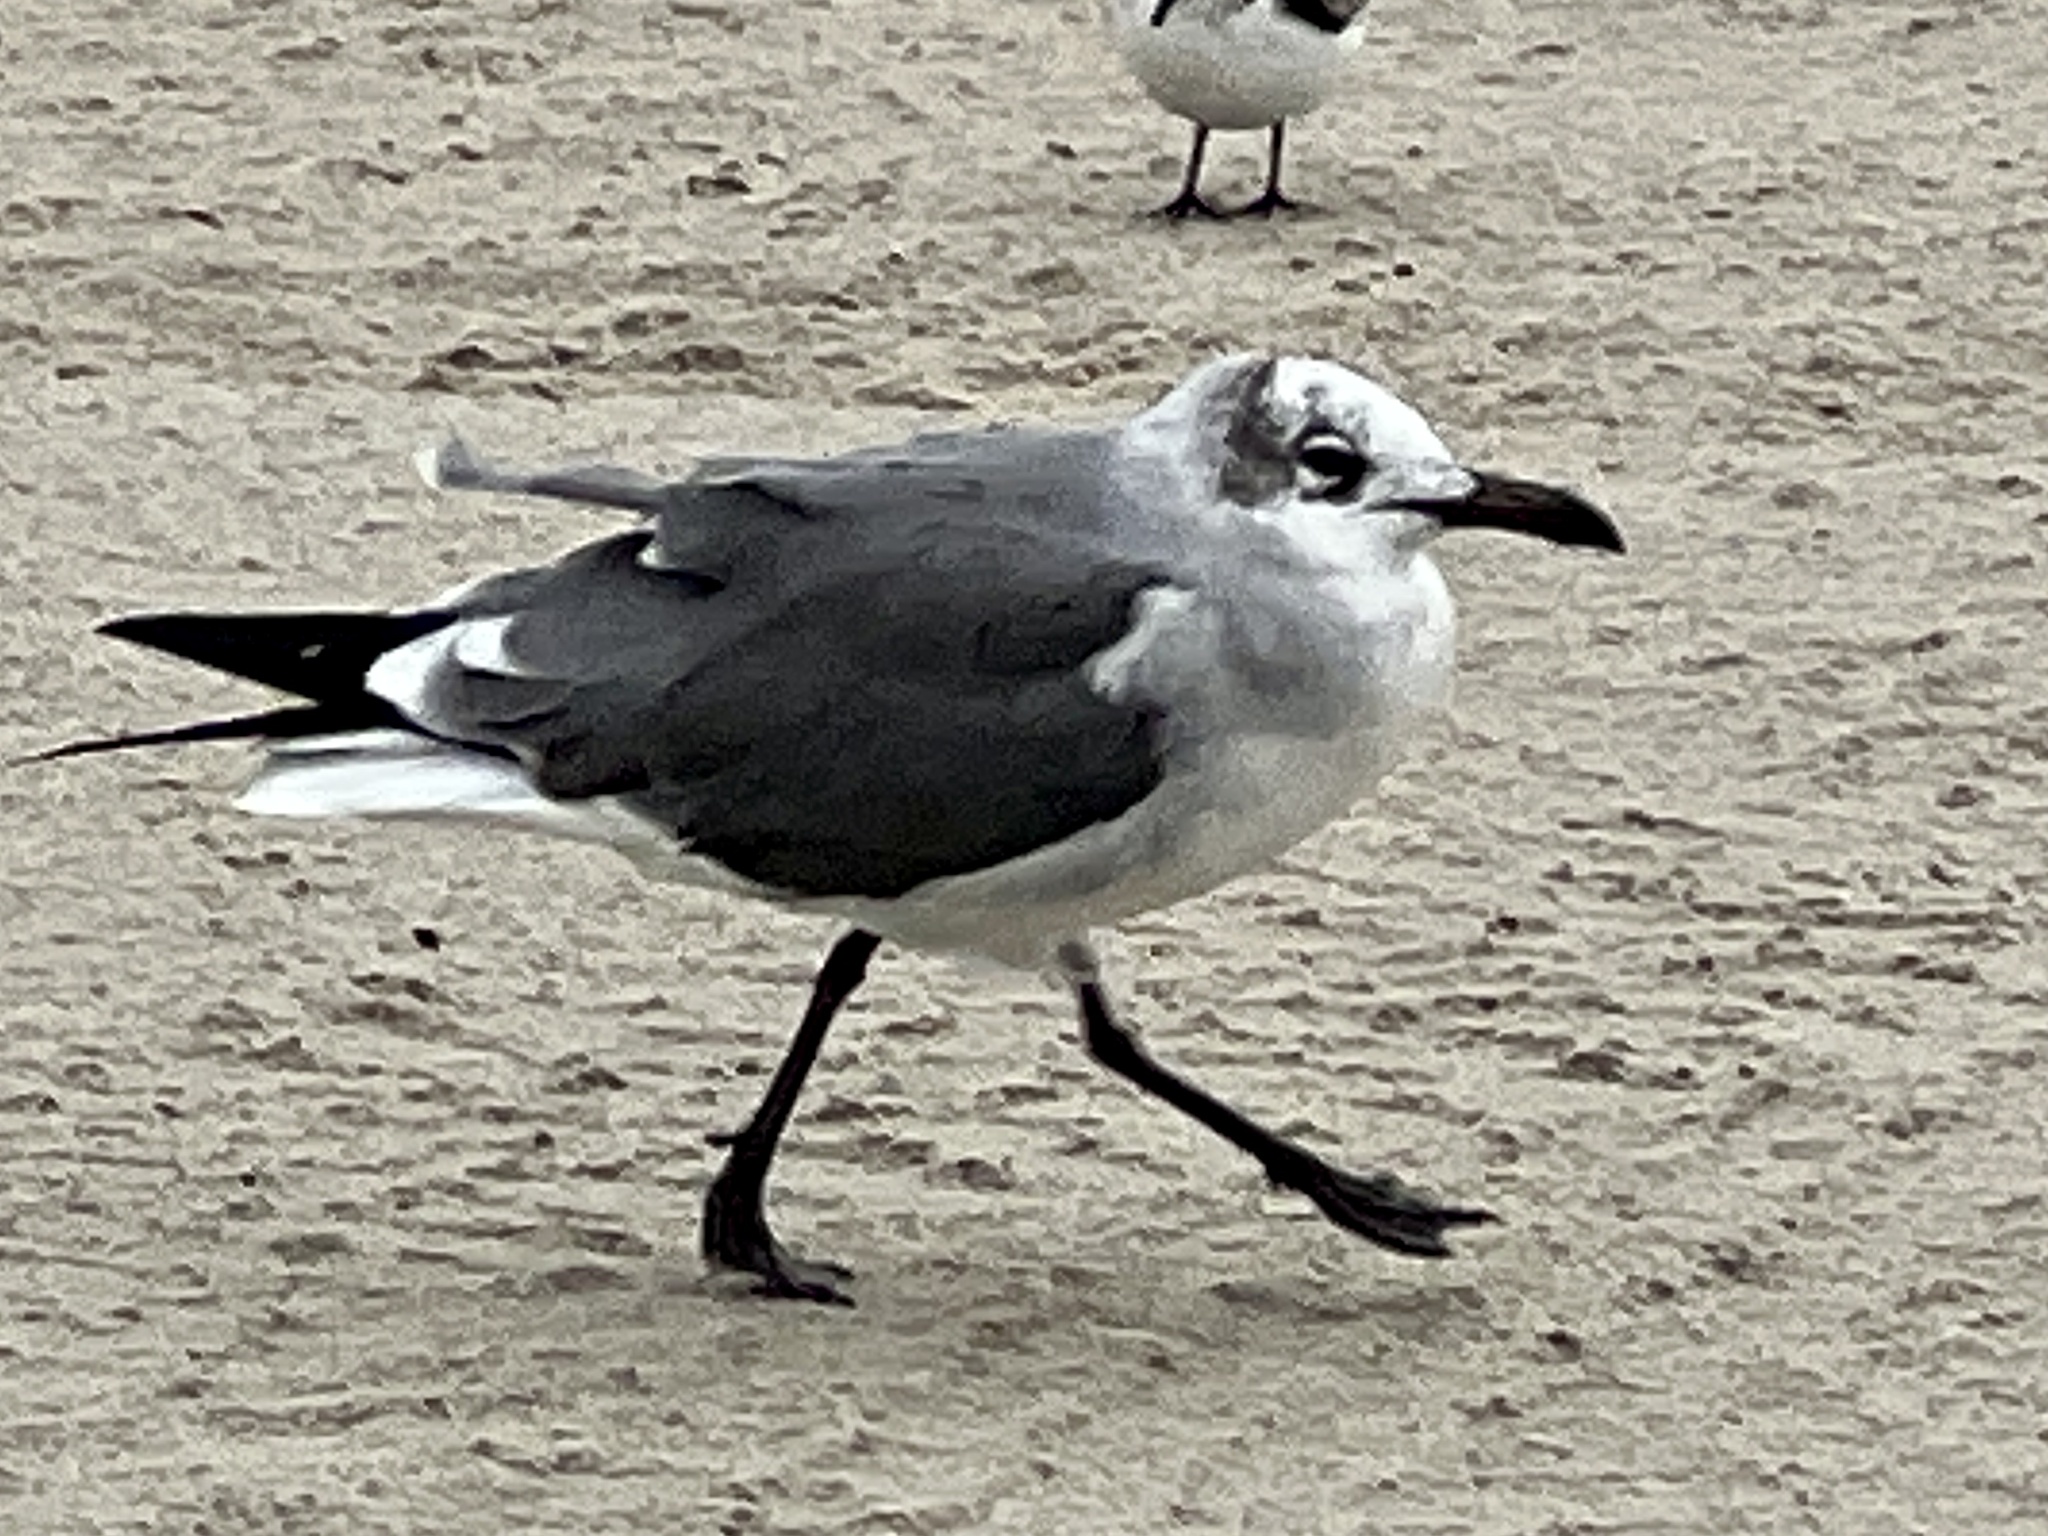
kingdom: Animalia
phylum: Chordata
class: Aves
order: Charadriiformes
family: Laridae
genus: Leucophaeus
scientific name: Leucophaeus atricilla
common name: Laughing gull
